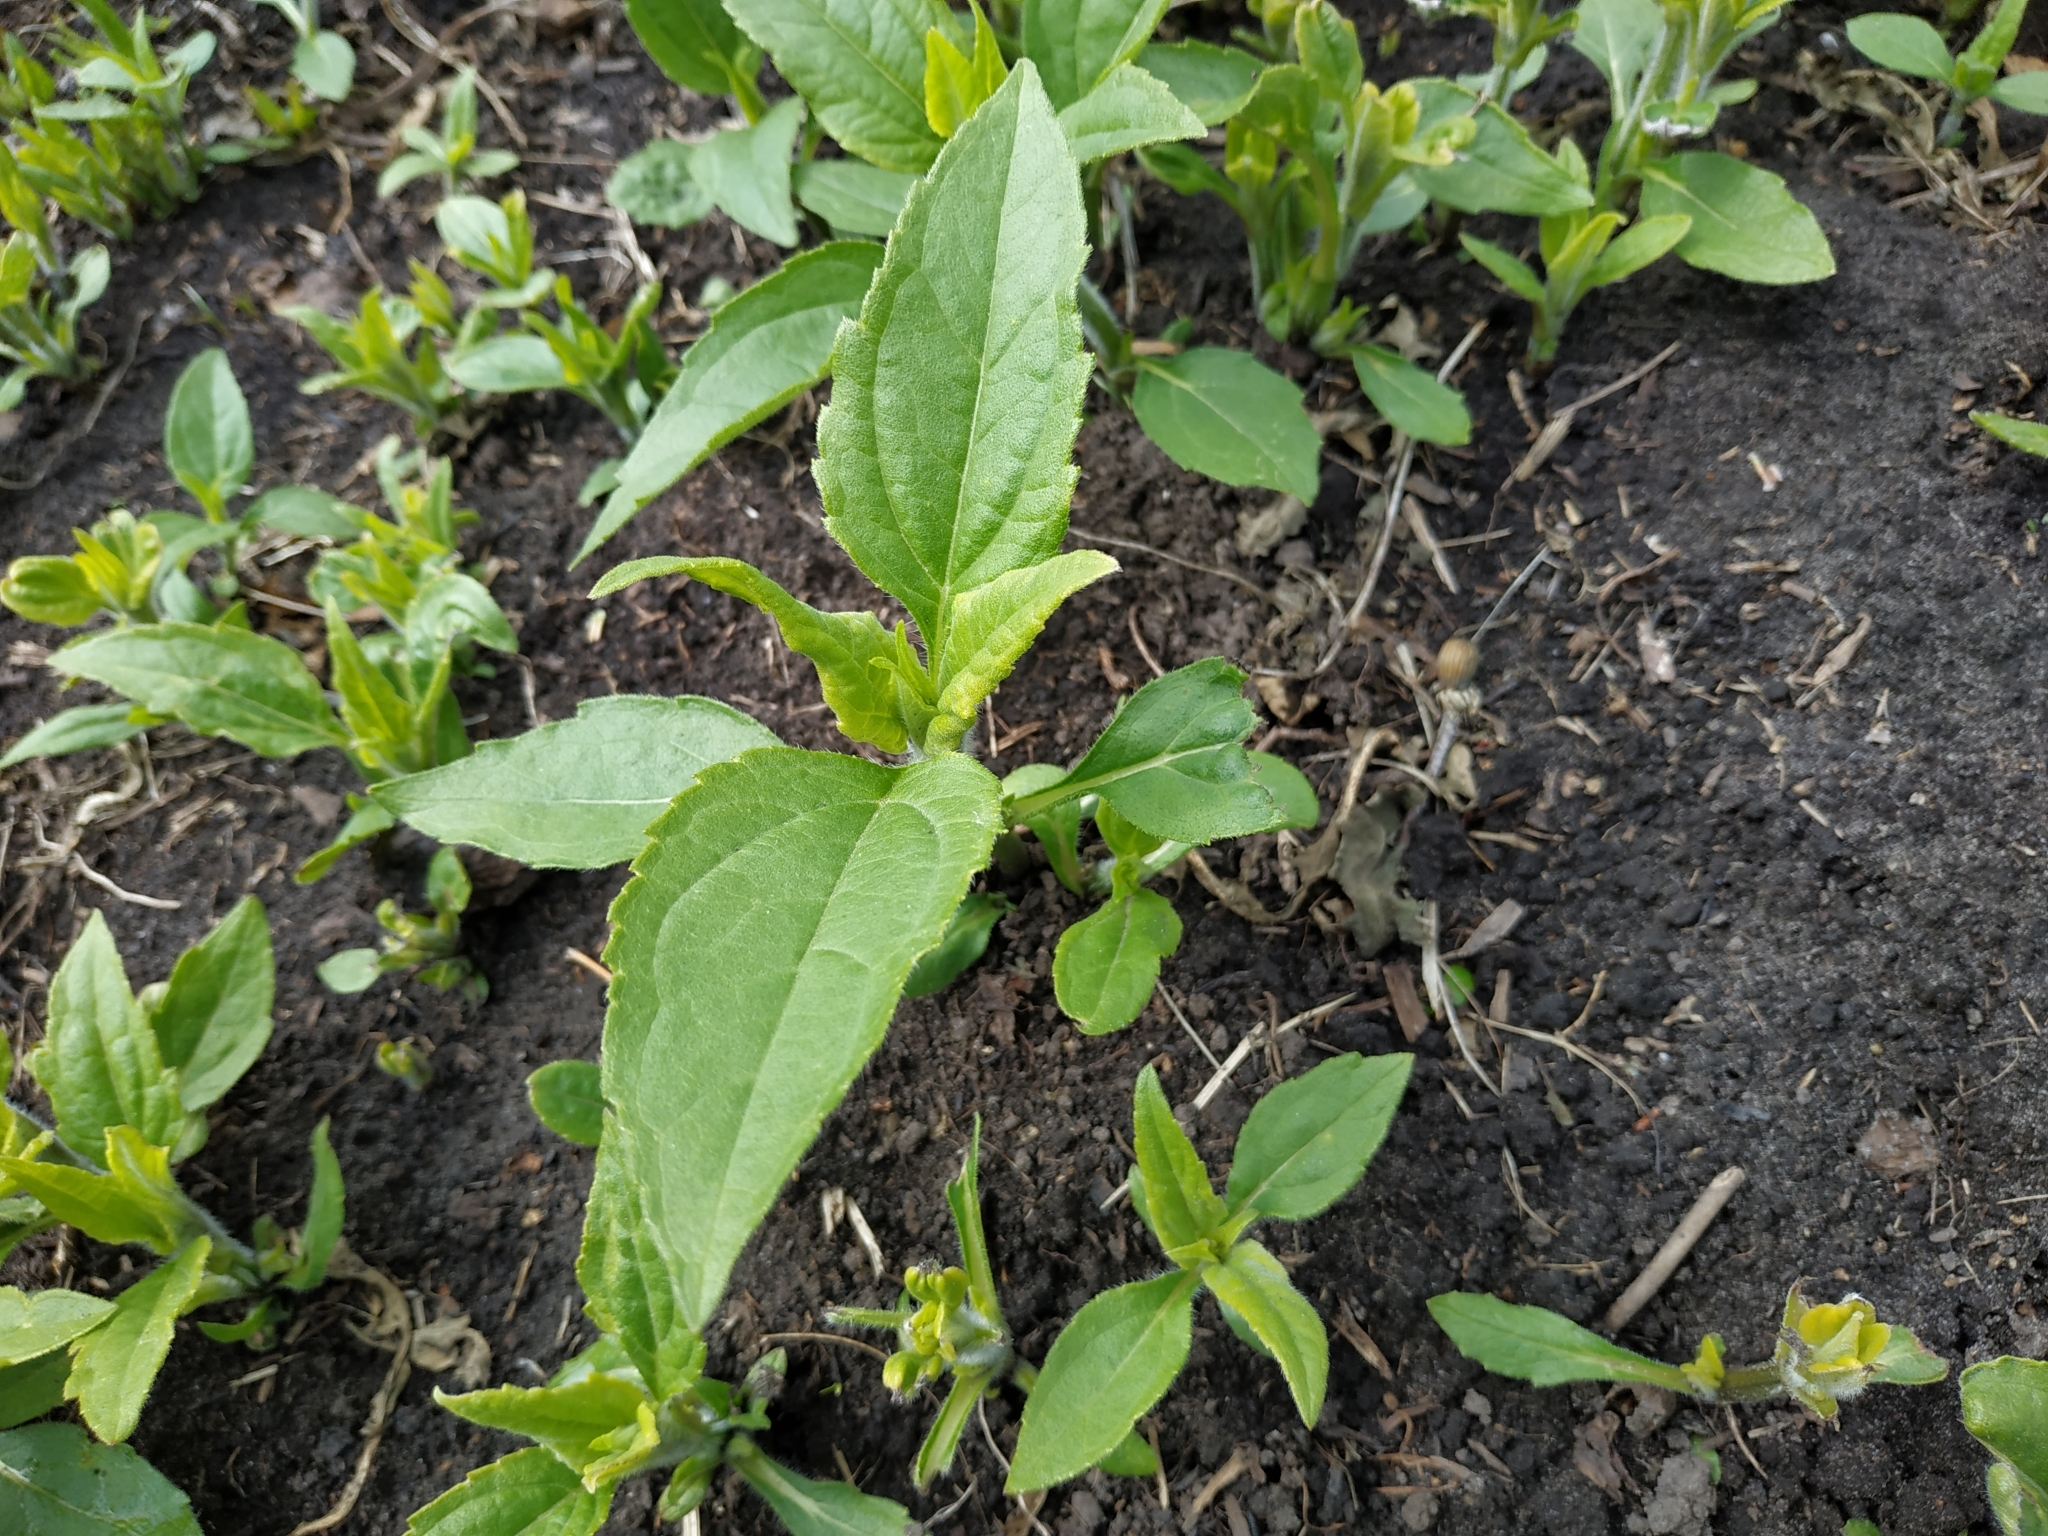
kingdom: Plantae
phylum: Tracheophyta
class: Magnoliopsida
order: Asterales
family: Asteraceae
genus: Helianthus
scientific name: Helianthus tuberosus
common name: Jerusalem artichoke
